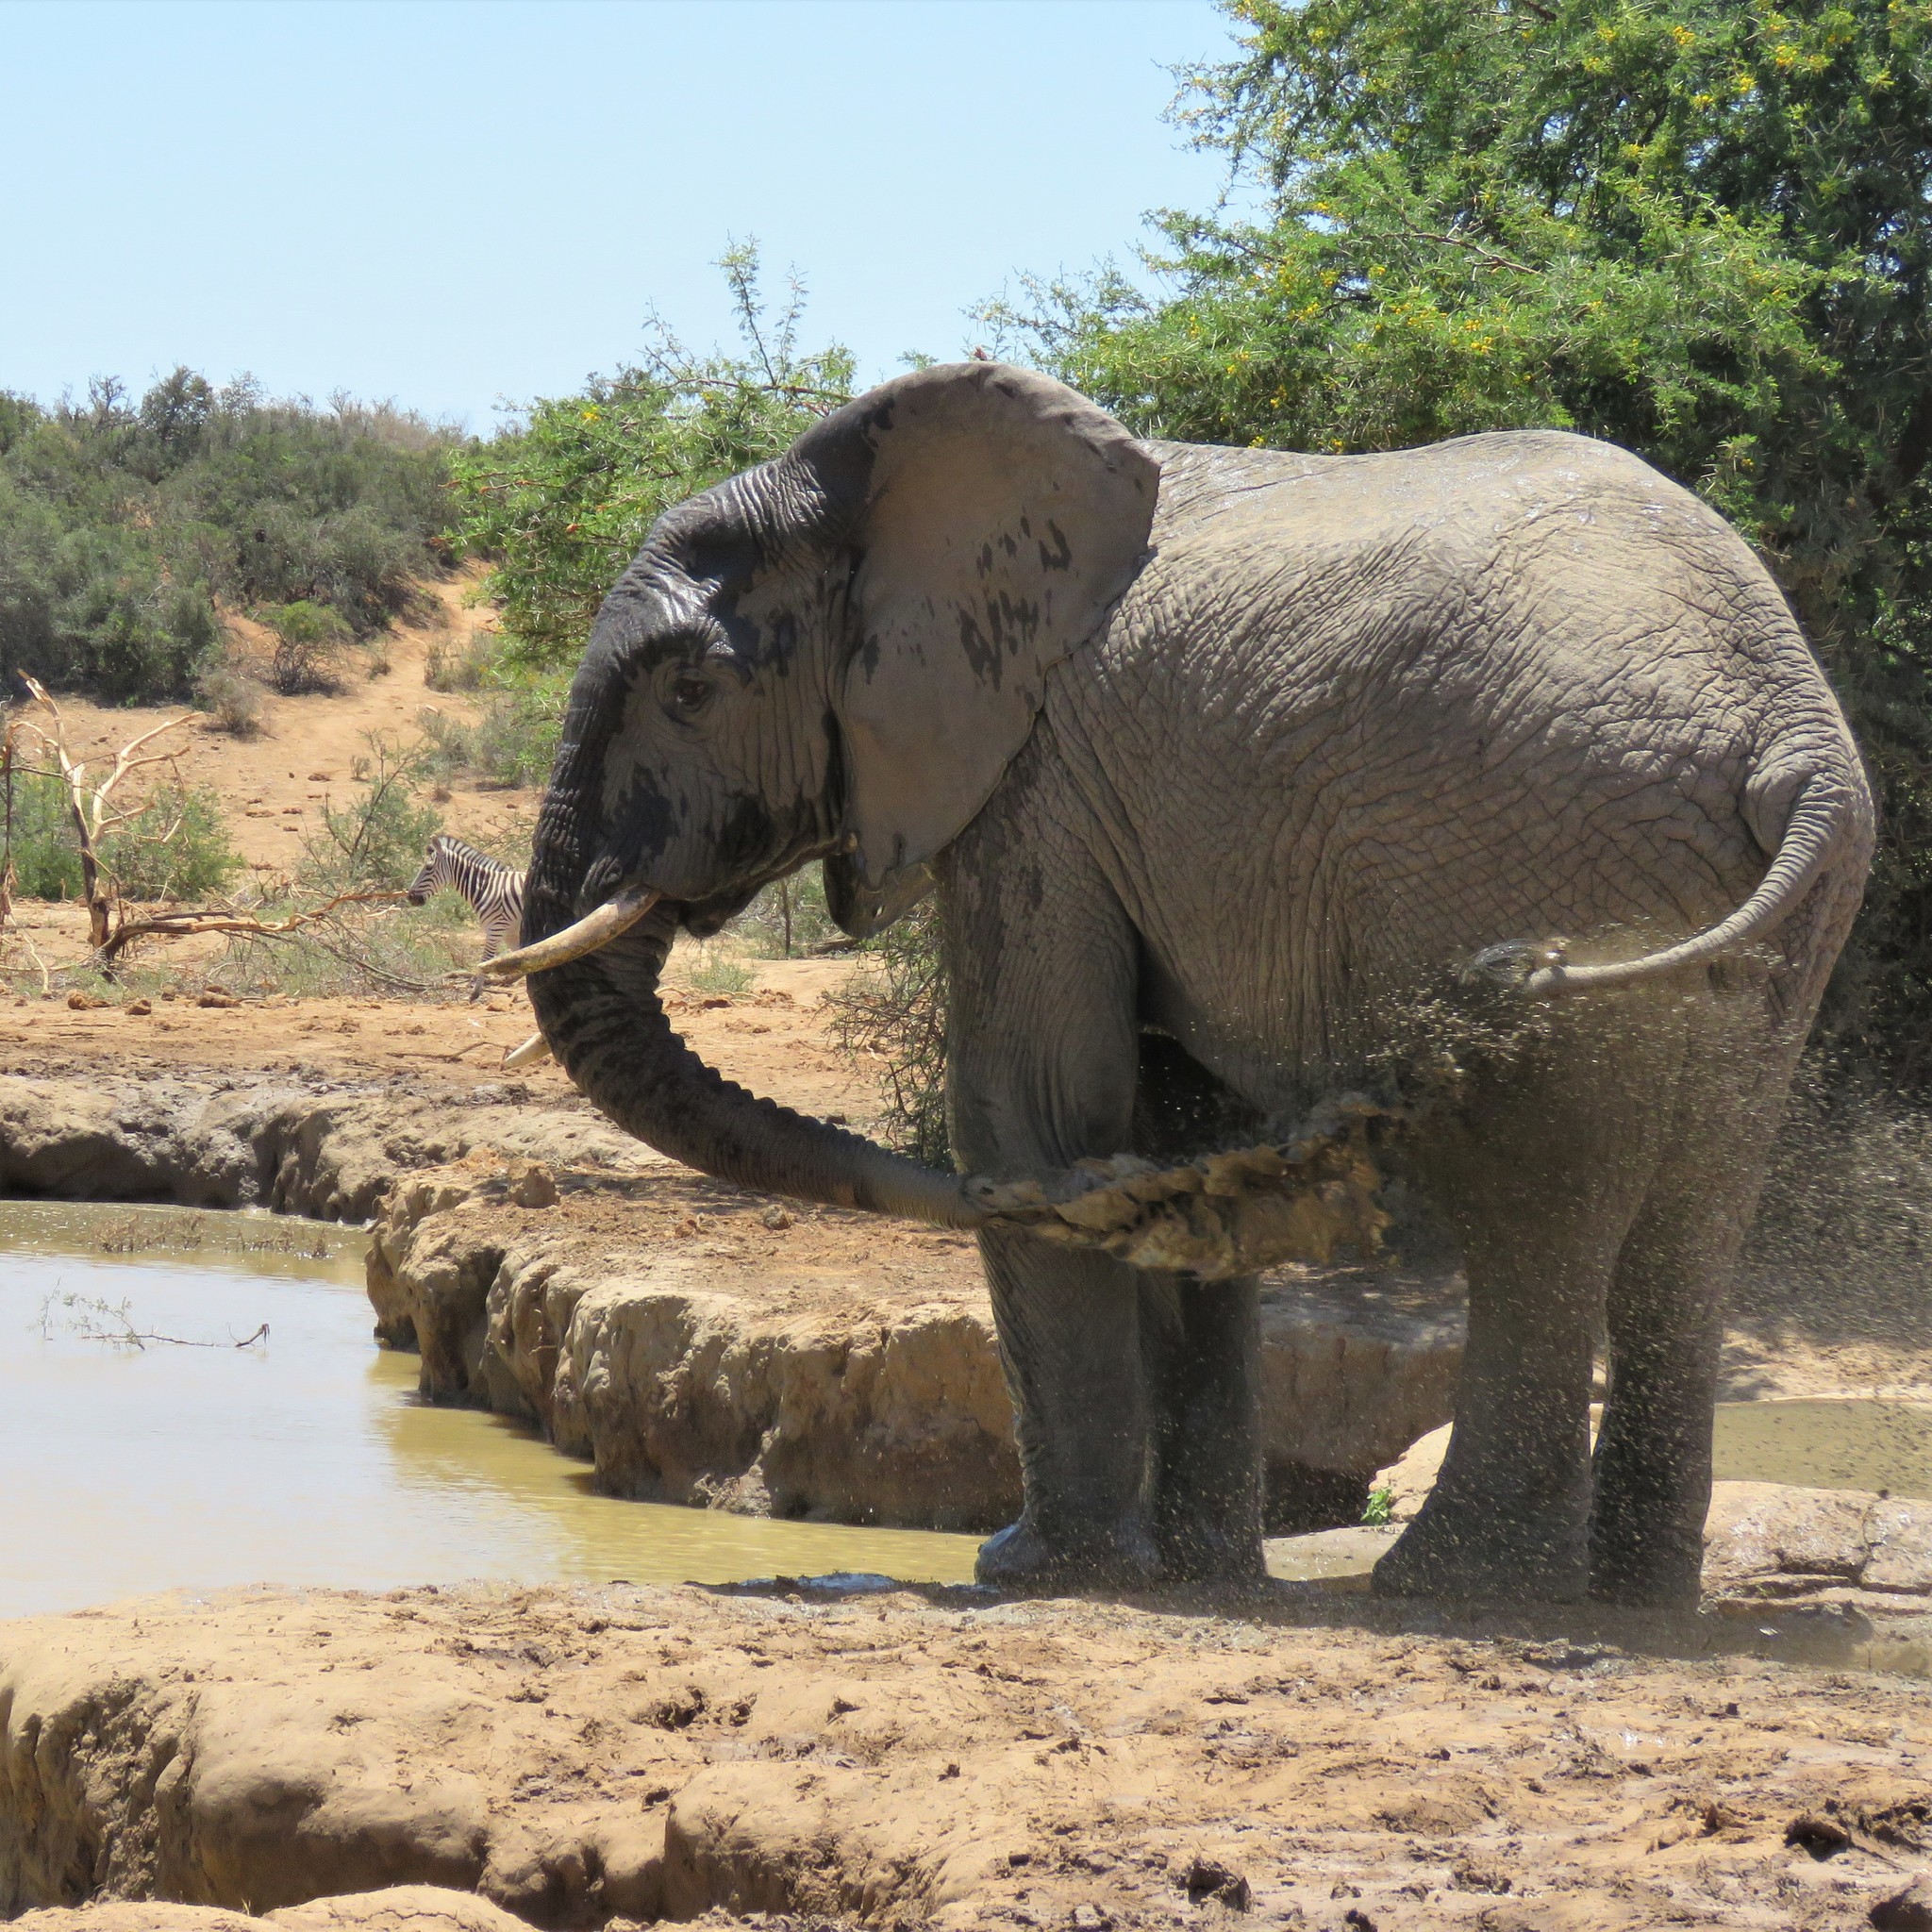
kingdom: Animalia
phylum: Chordata
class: Mammalia
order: Proboscidea
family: Elephantidae
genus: Loxodonta
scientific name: Loxodonta africana
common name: African elephant
